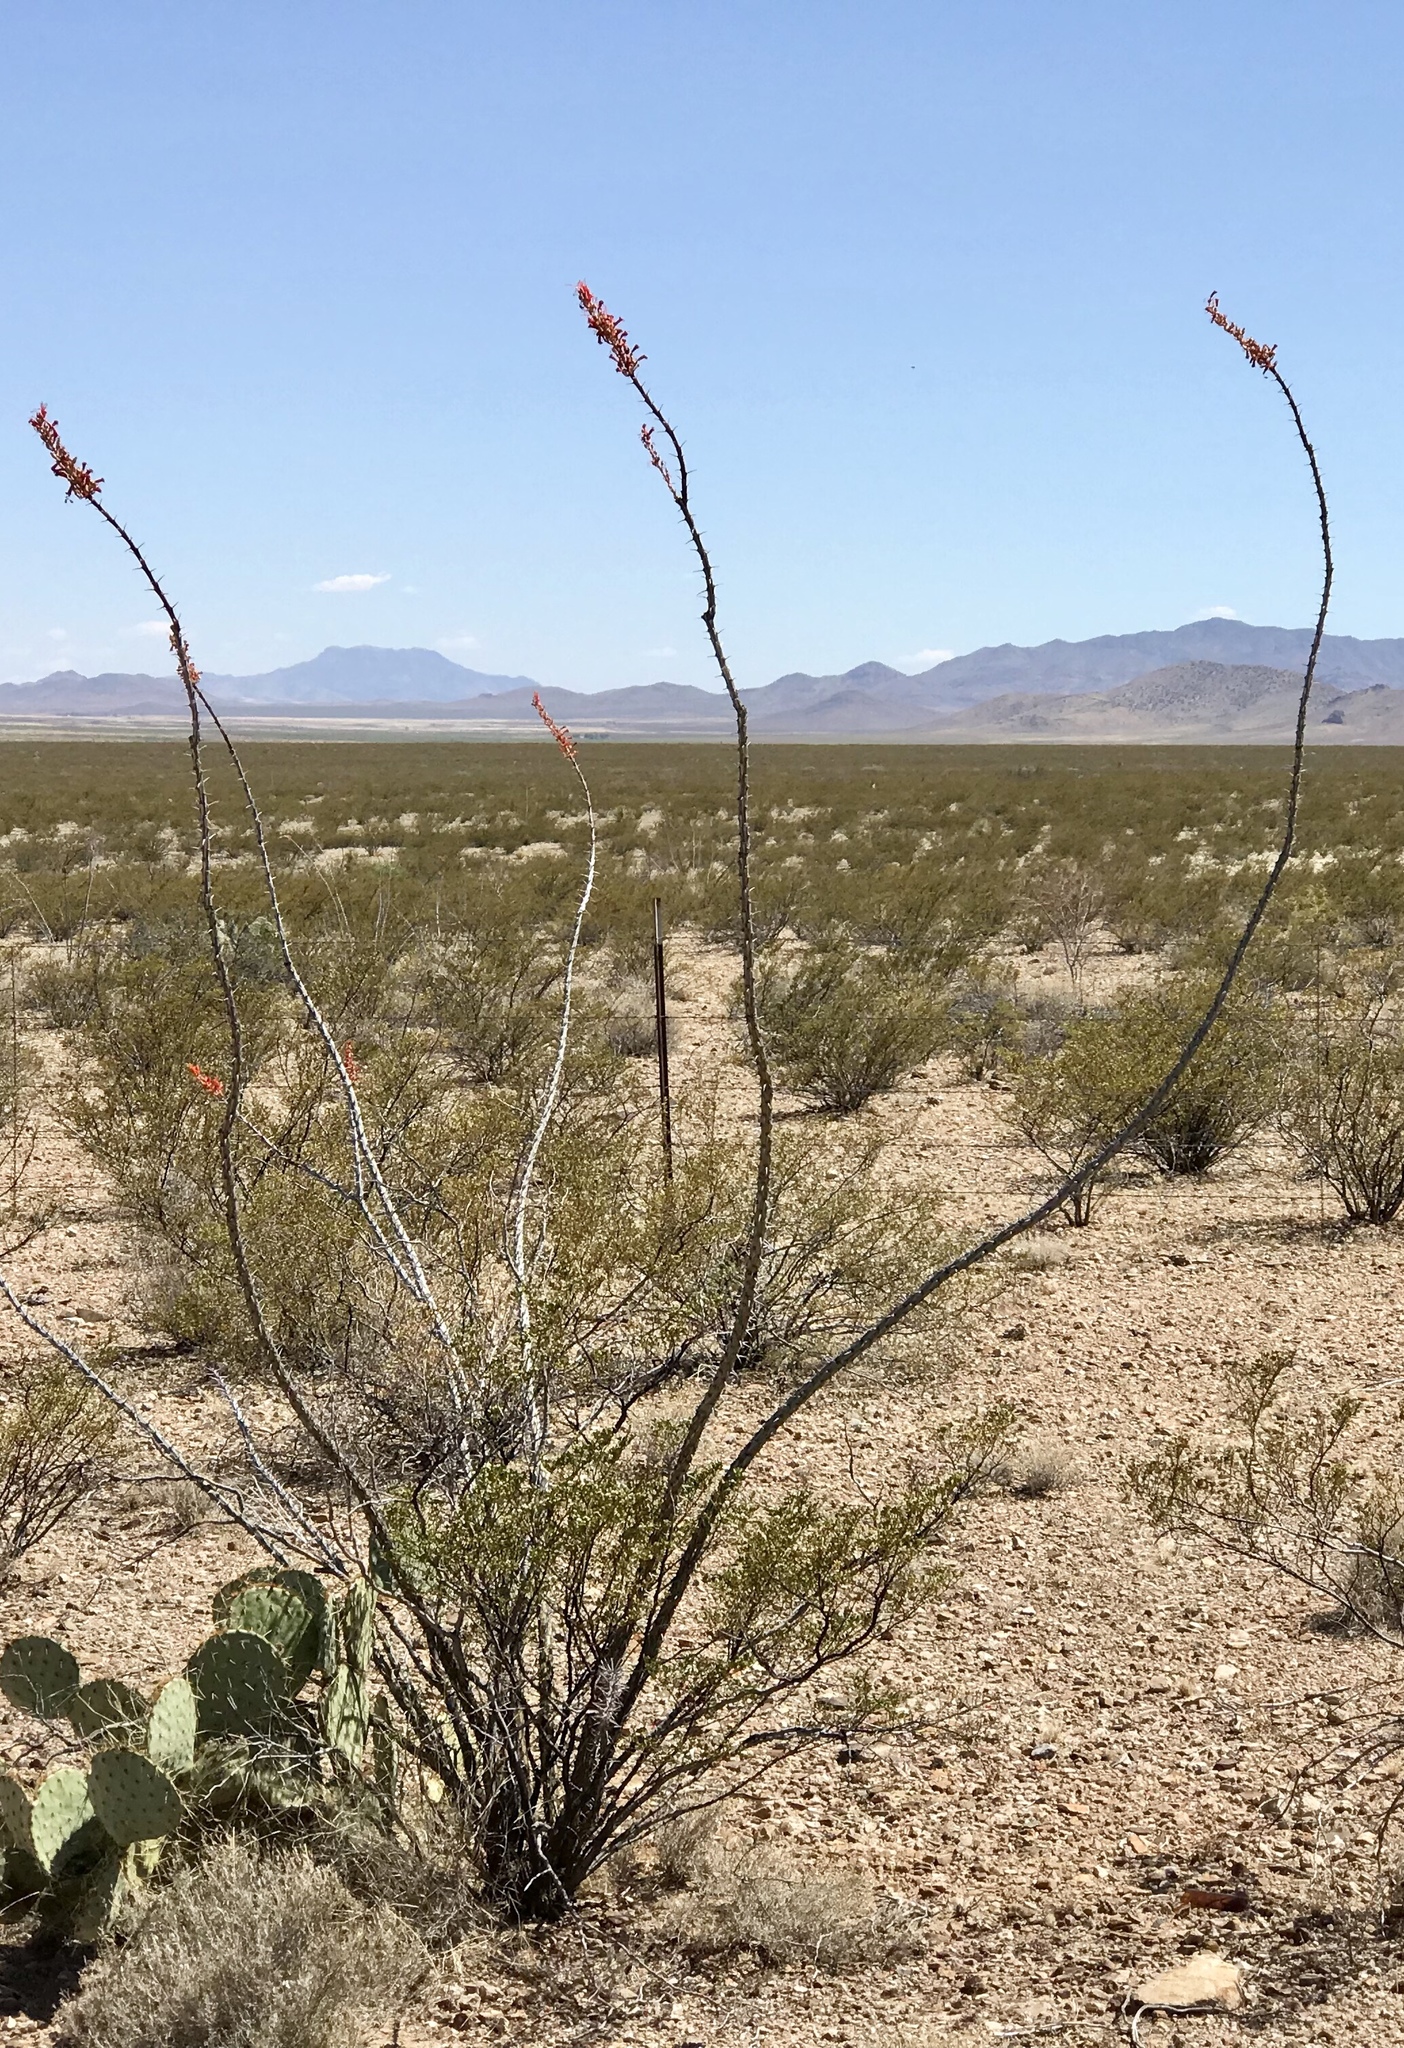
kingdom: Plantae
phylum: Tracheophyta
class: Magnoliopsida
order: Ericales
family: Fouquieriaceae
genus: Fouquieria
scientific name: Fouquieria splendens
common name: Vine-cactus
